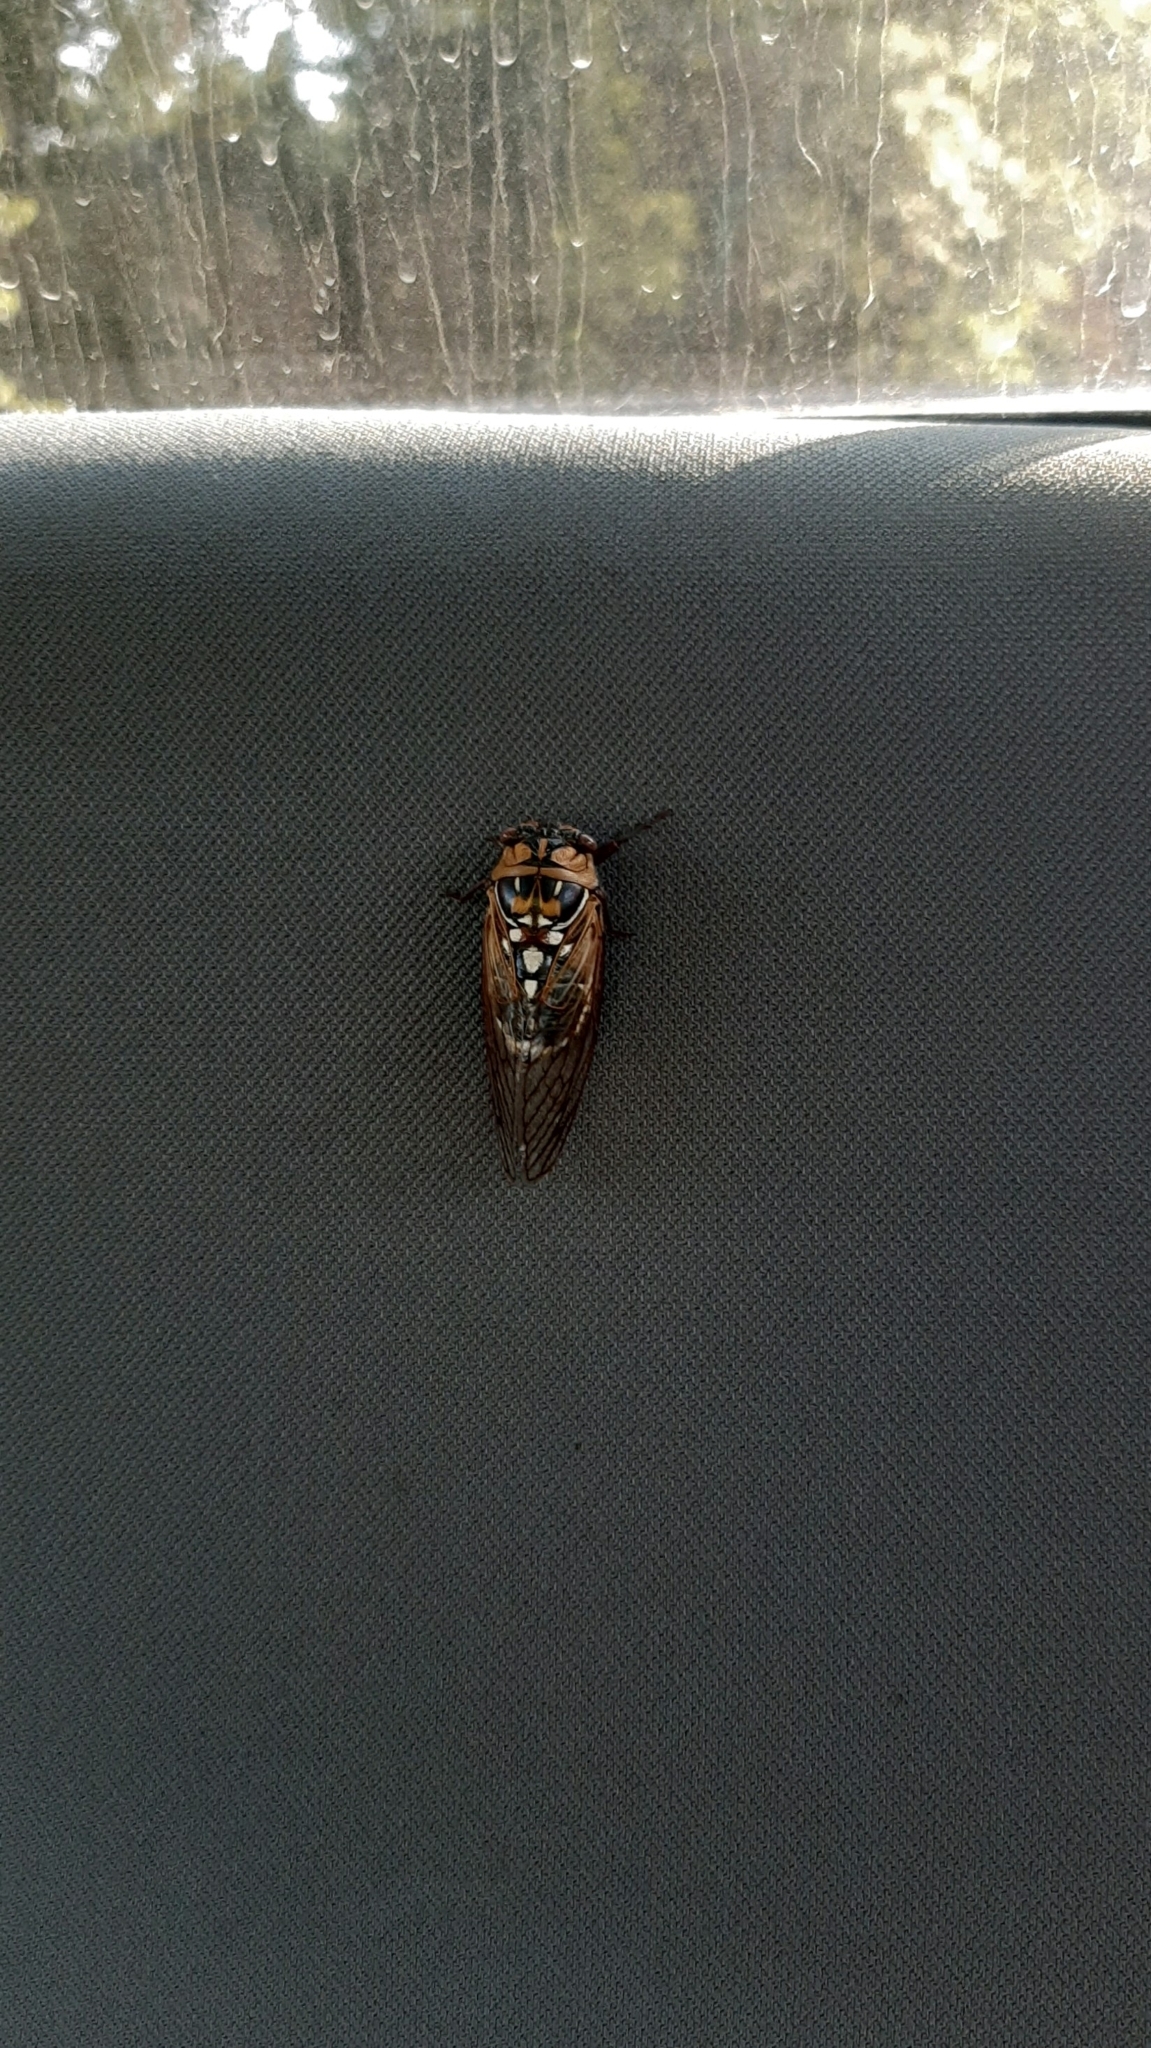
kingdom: Animalia
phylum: Arthropoda
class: Insecta
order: Hemiptera
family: Cicadidae
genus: Megatibicen
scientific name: Megatibicen dorsatus
